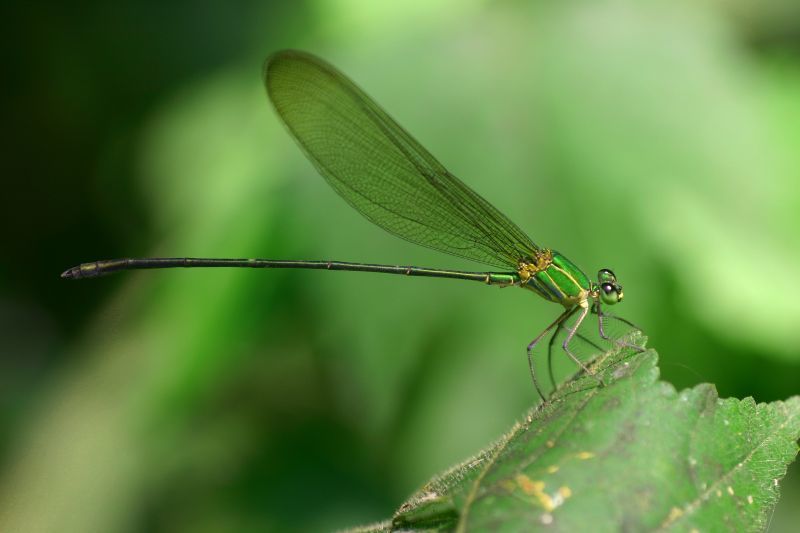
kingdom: Animalia
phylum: Arthropoda
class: Insecta
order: Odonata
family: Calopterygidae
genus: Vestalis
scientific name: Vestalis gracilis
